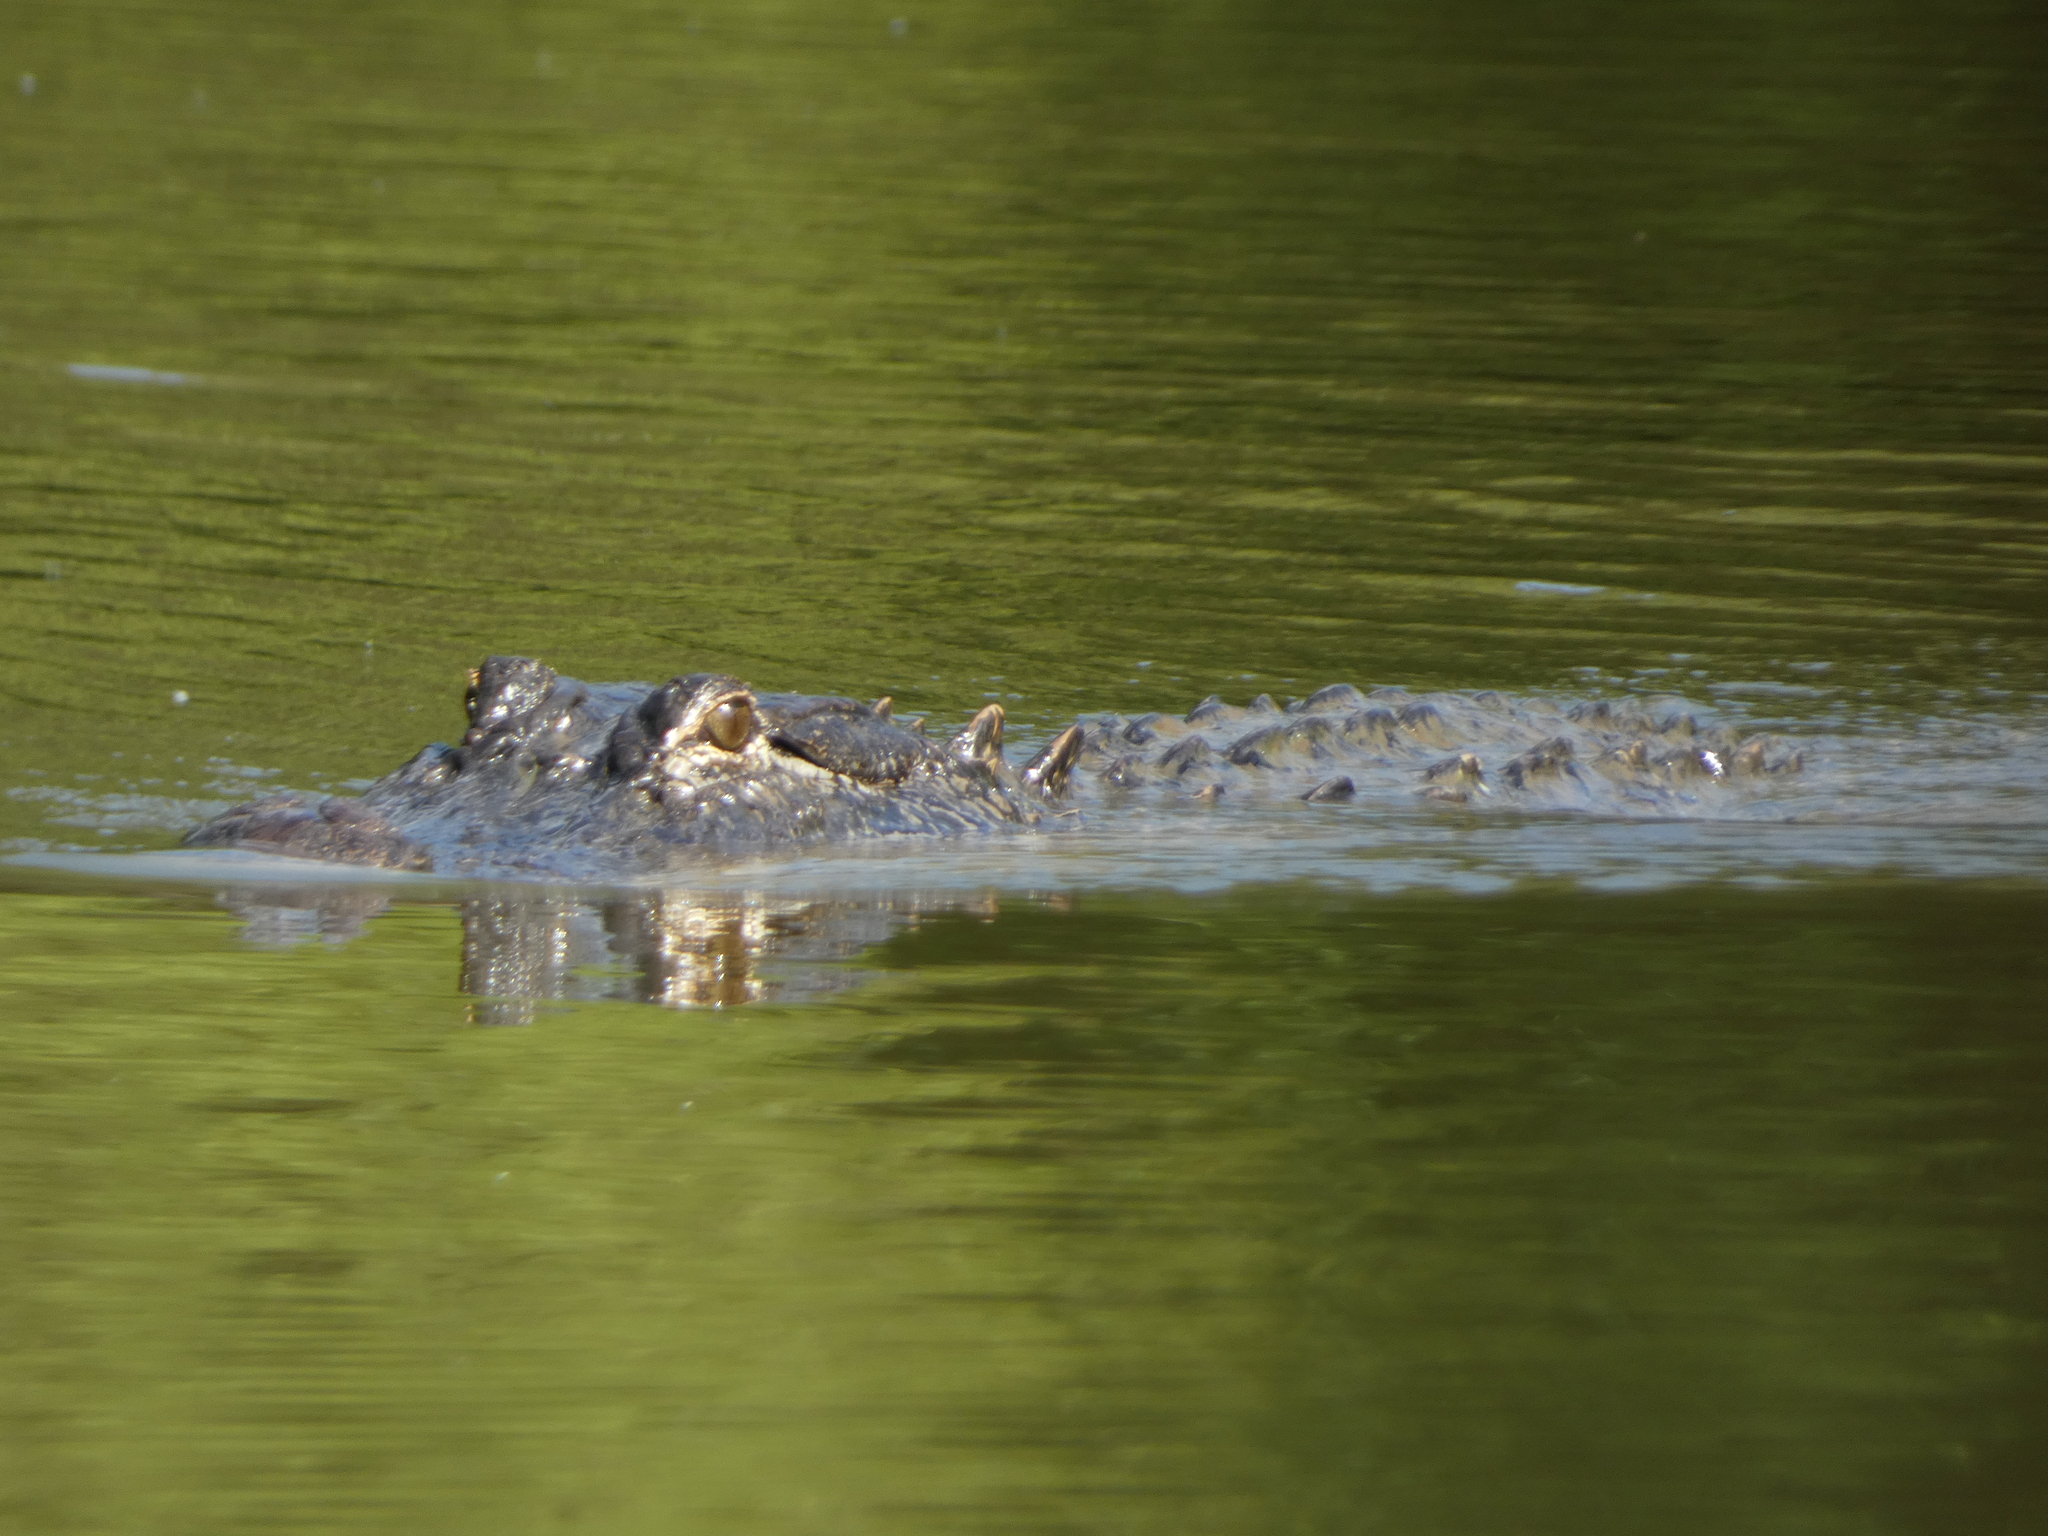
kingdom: Animalia
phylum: Chordata
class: Crocodylia
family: Alligatoridae
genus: Alligator
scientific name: Alligator mississippiensis
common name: American alligator
